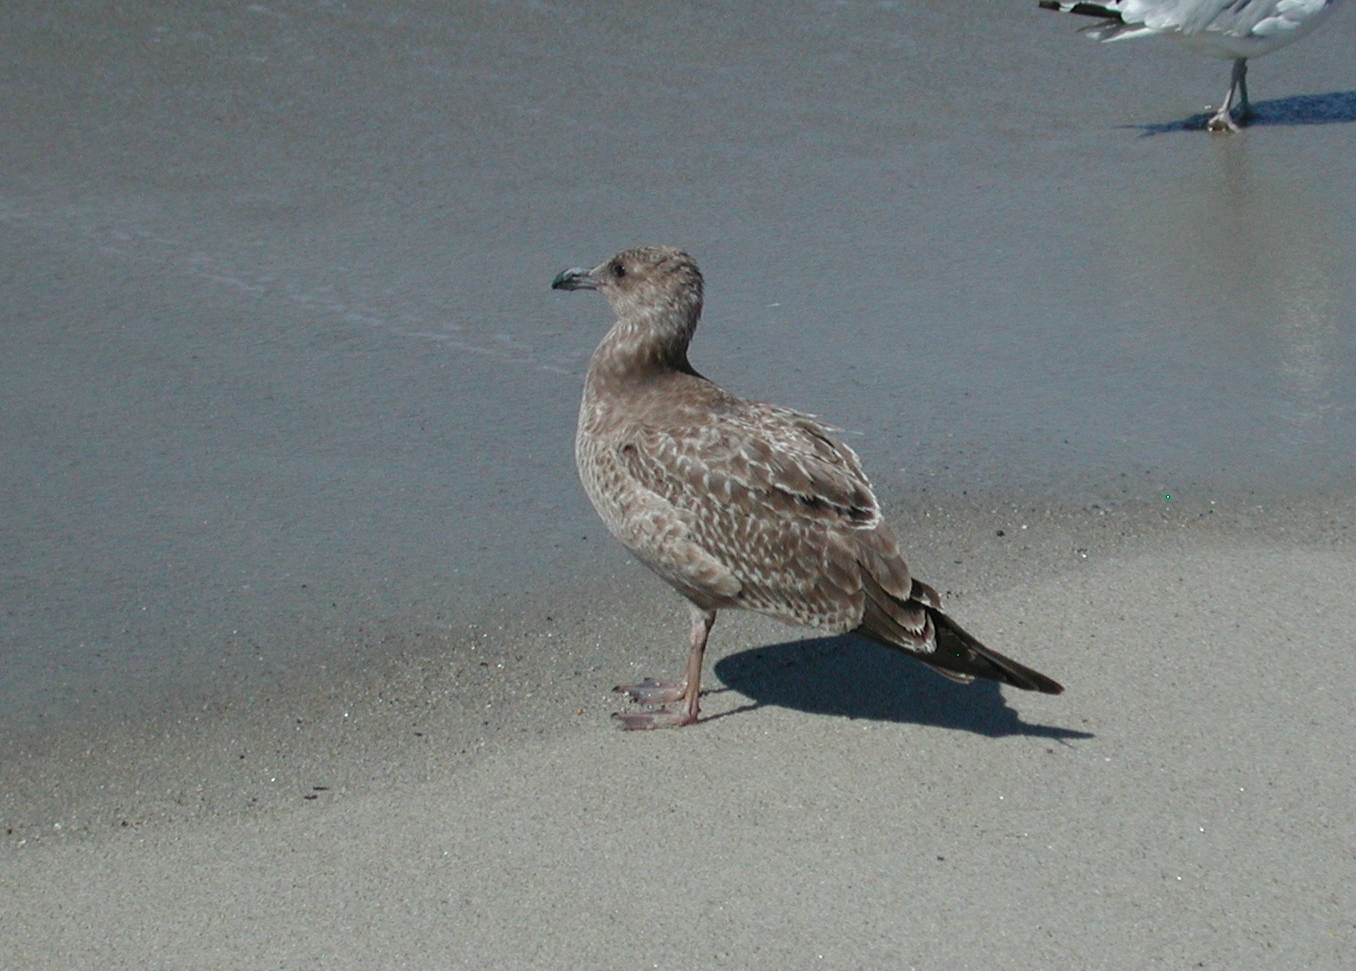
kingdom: Animalia
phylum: Chordata
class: Aves
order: Charadriiformes
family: Laridae
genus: Larus
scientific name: Larus argentatus
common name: Herring gull
